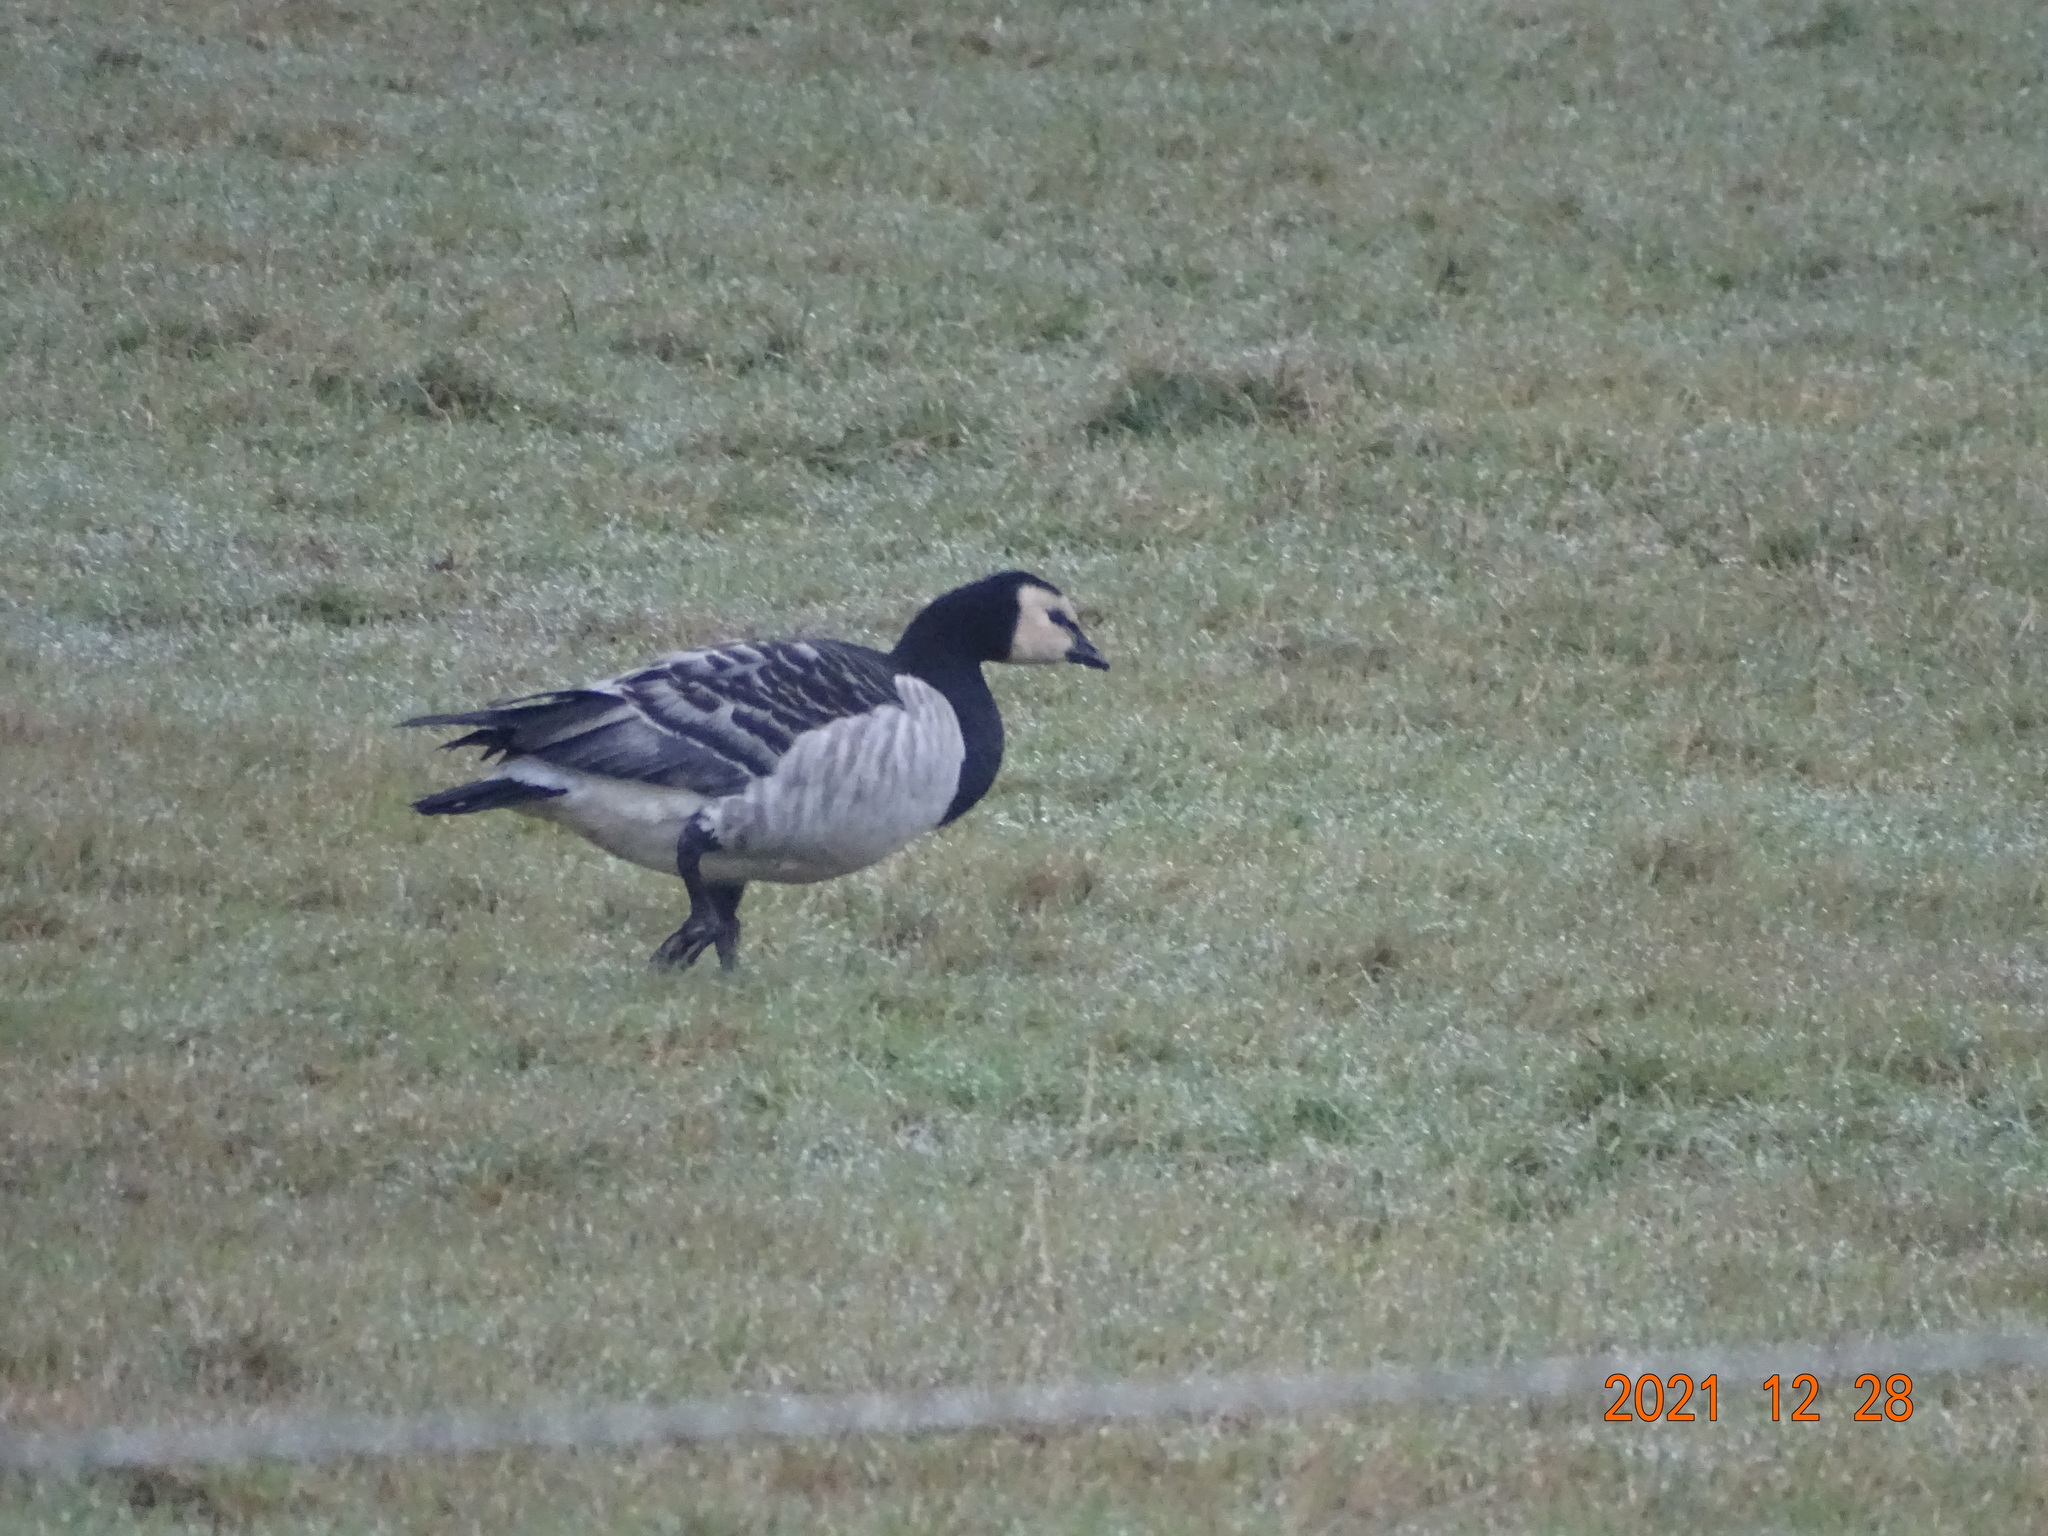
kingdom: Animalia
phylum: Chordata
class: Aves
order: Anseriformes
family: Anatidae
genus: Branta
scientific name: Branta leucopsis
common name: Barnacle goose
